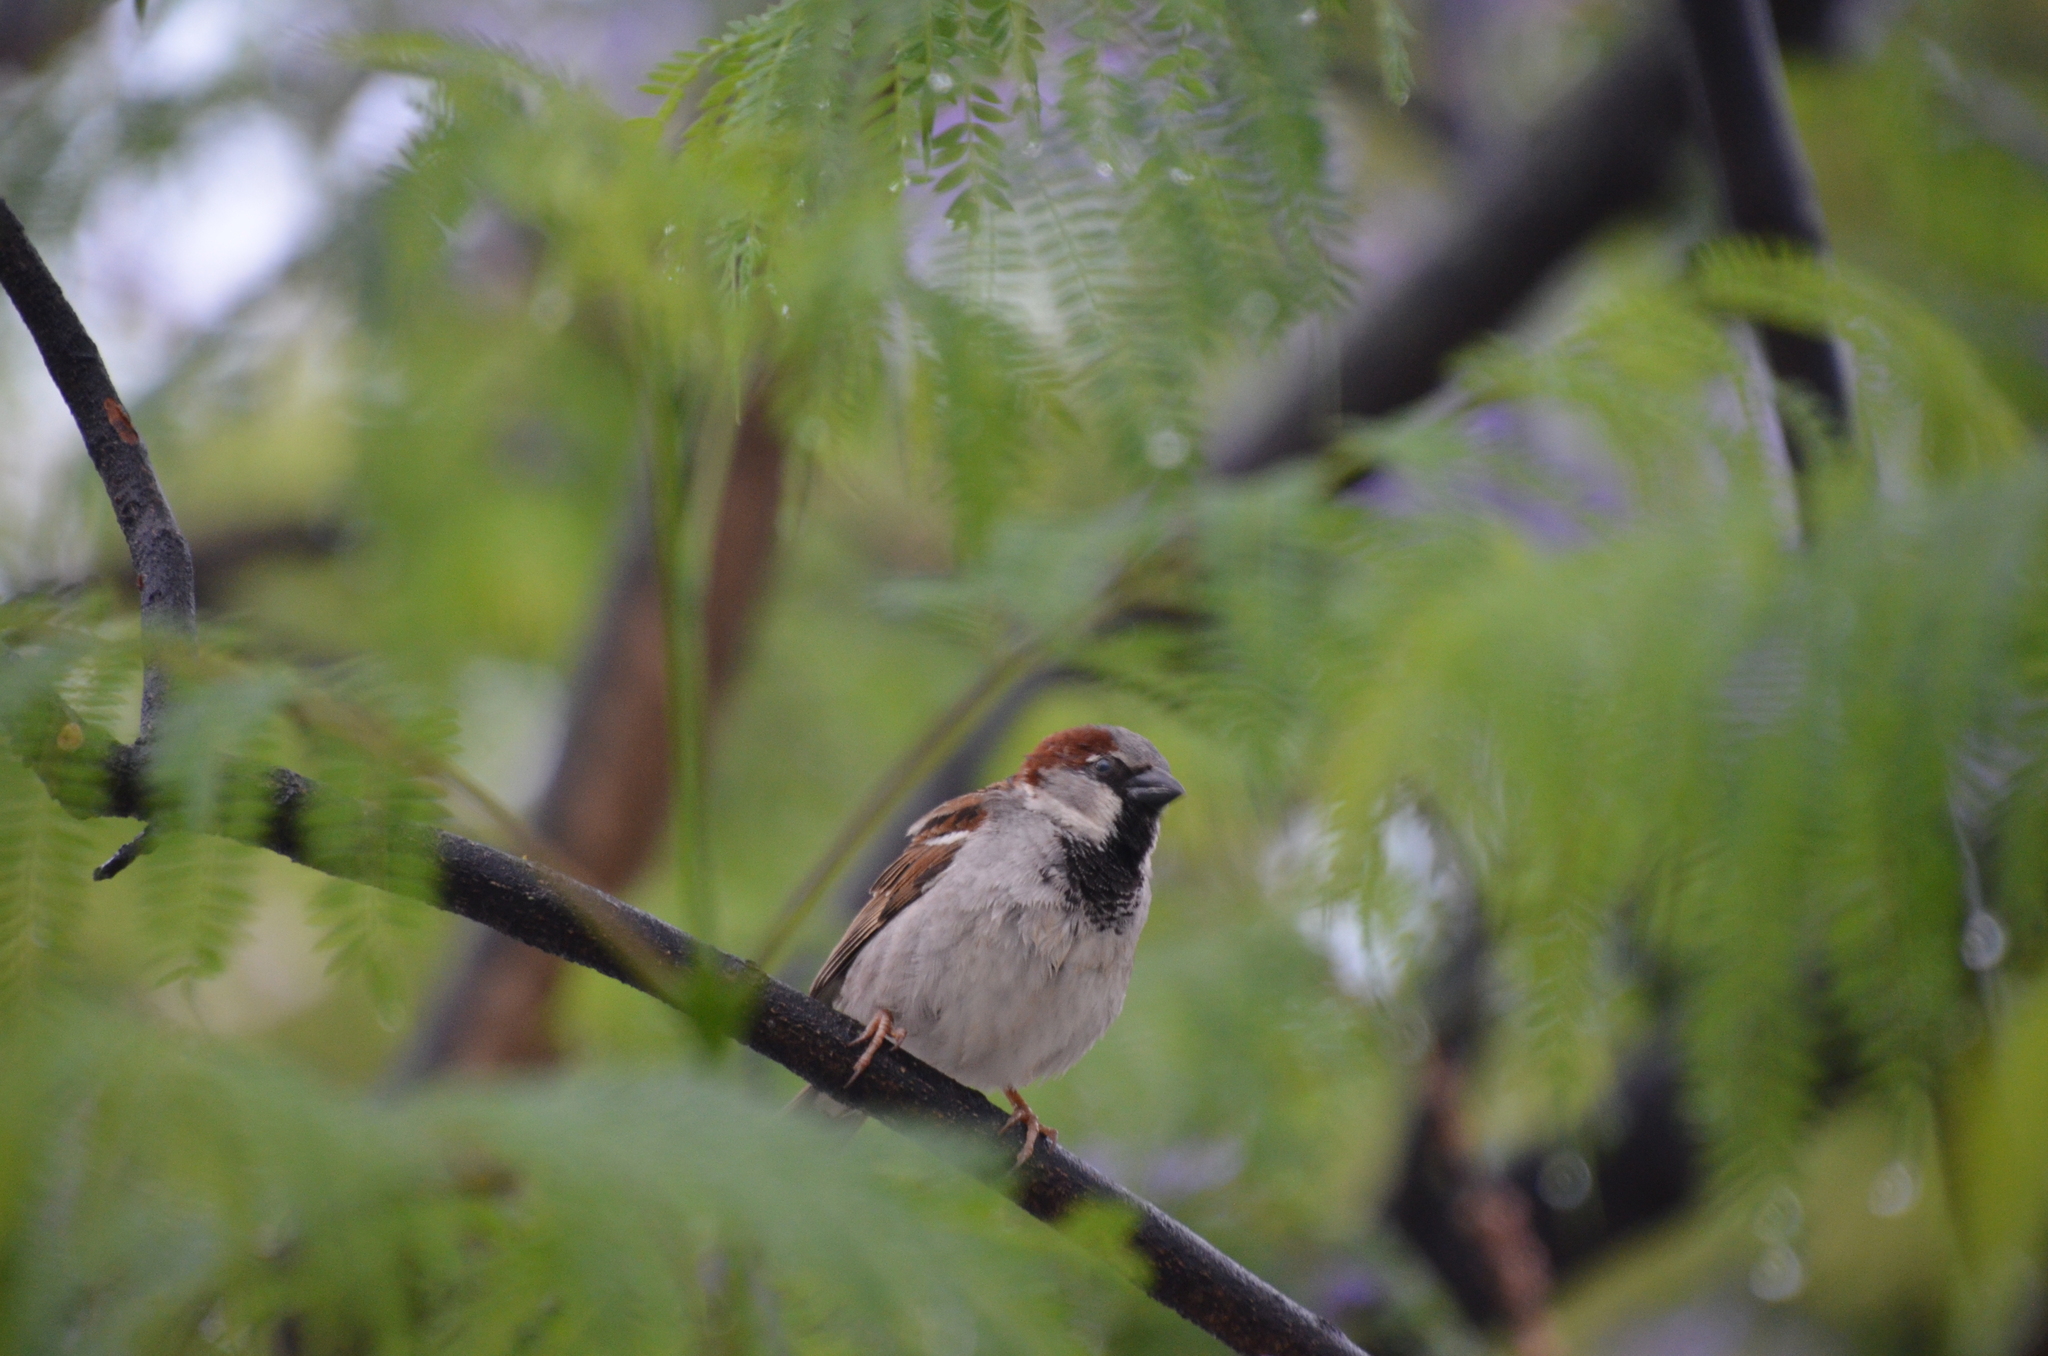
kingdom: Animalia
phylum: Chordata
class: Aves
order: Passeriformes
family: Passeridae
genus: Passer
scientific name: Passer domesticus
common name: House sparrow
